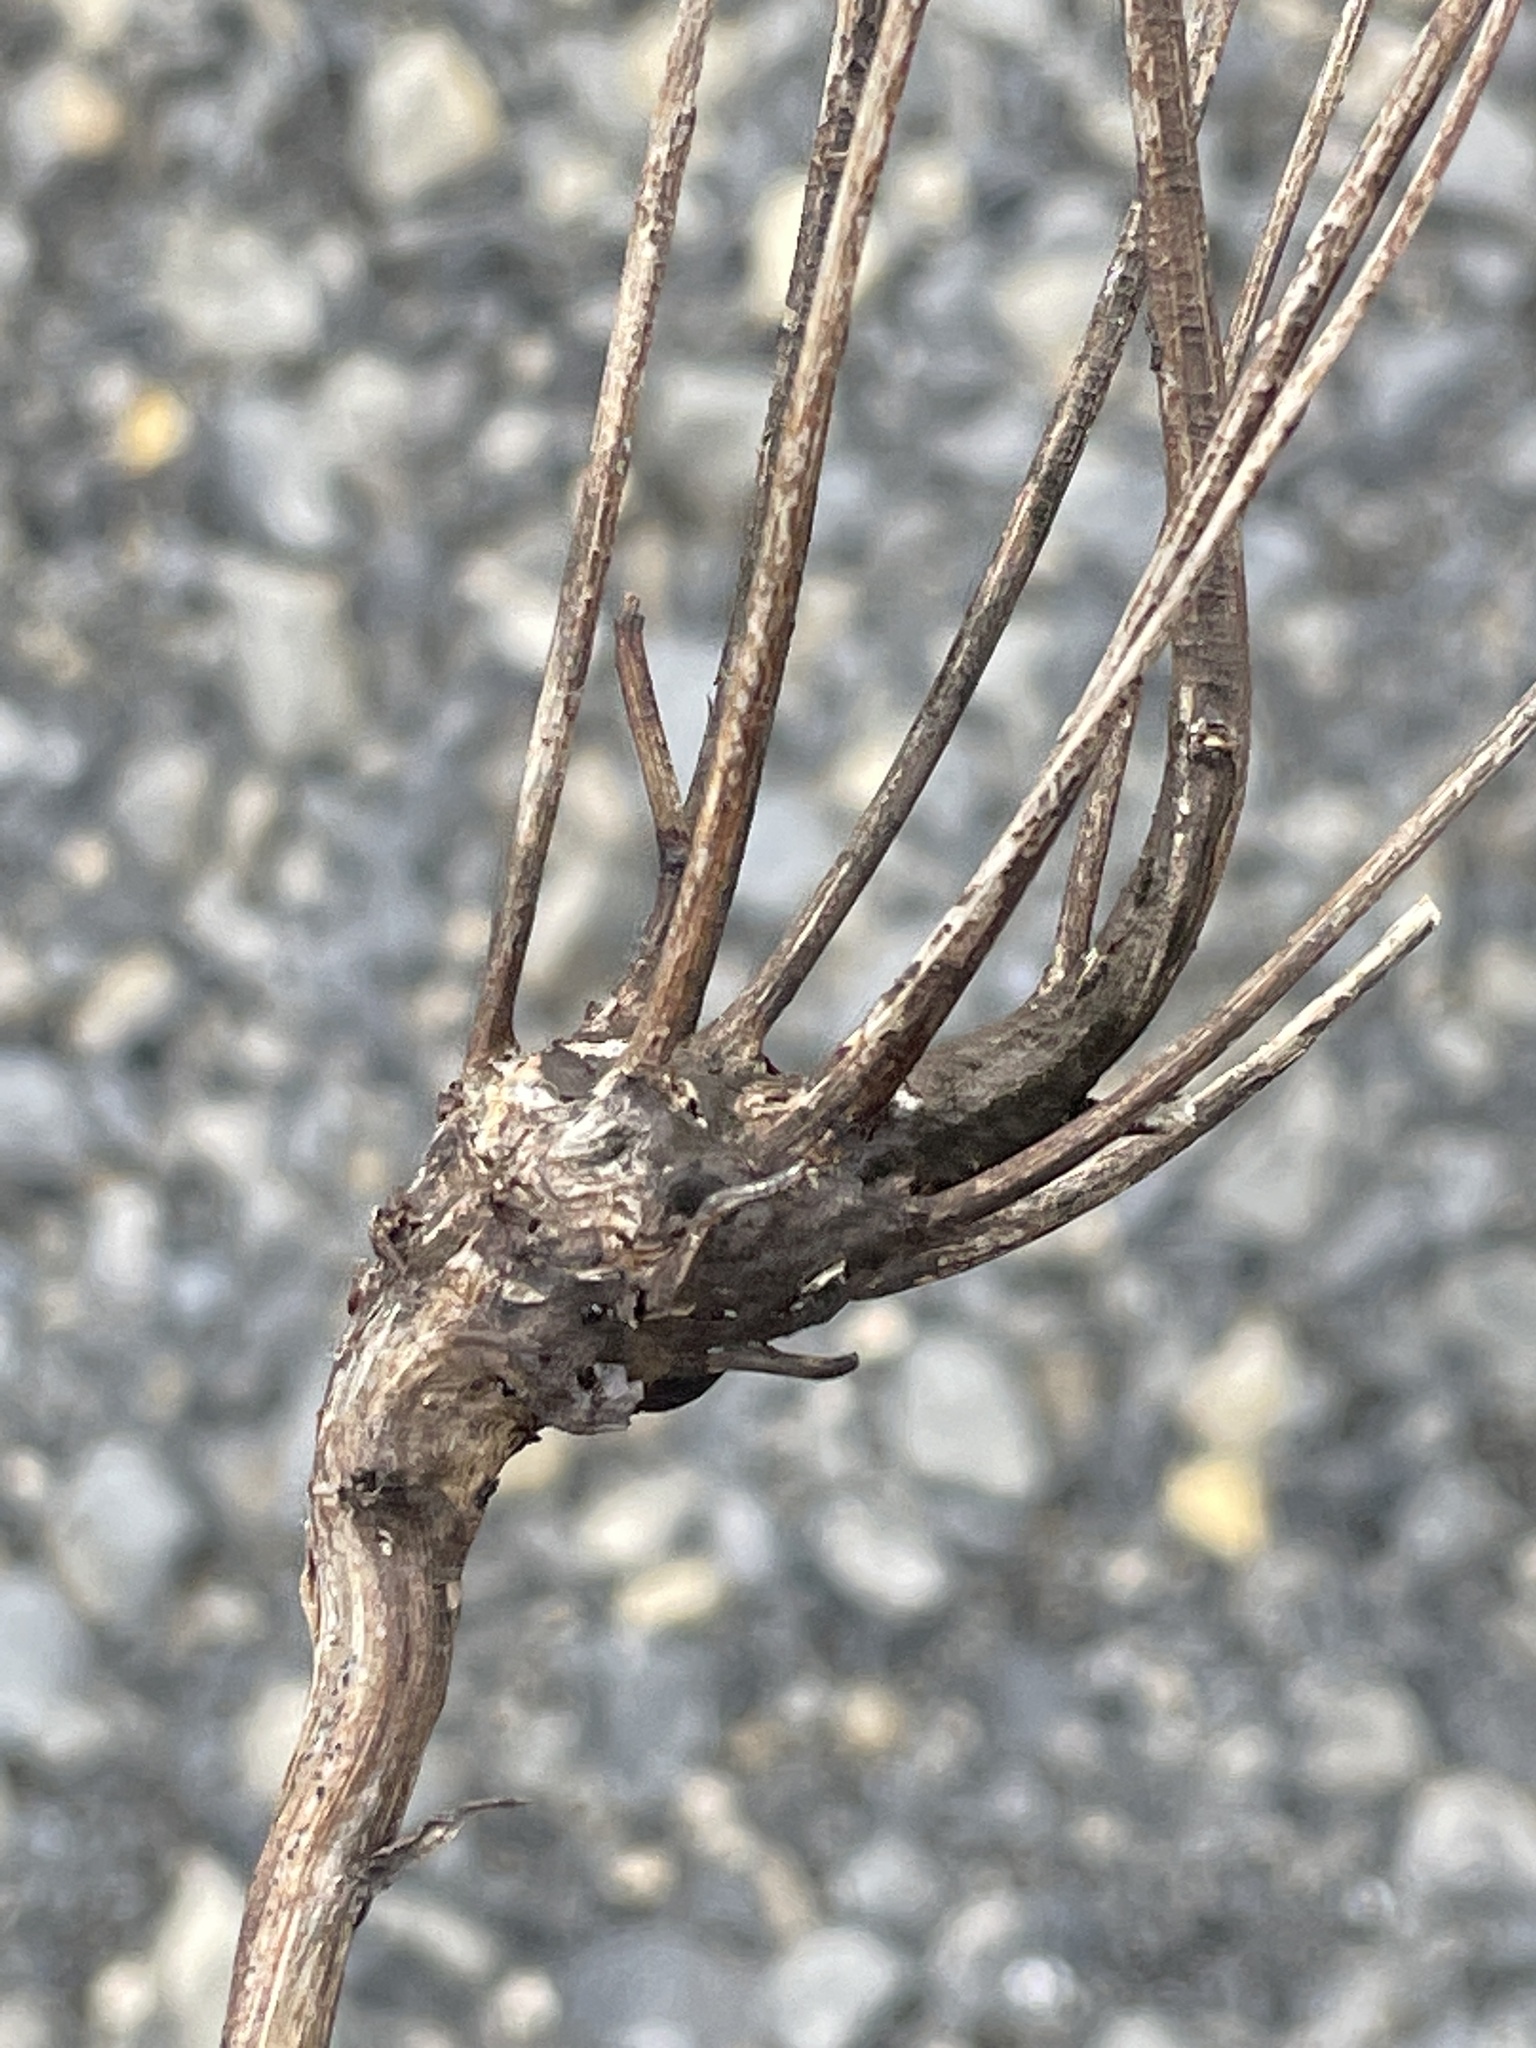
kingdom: Animalia
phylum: Arthropoda
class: Insecta
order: Hymenoptera
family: Cynipidae
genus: Aulacidea
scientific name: Aulacidea
